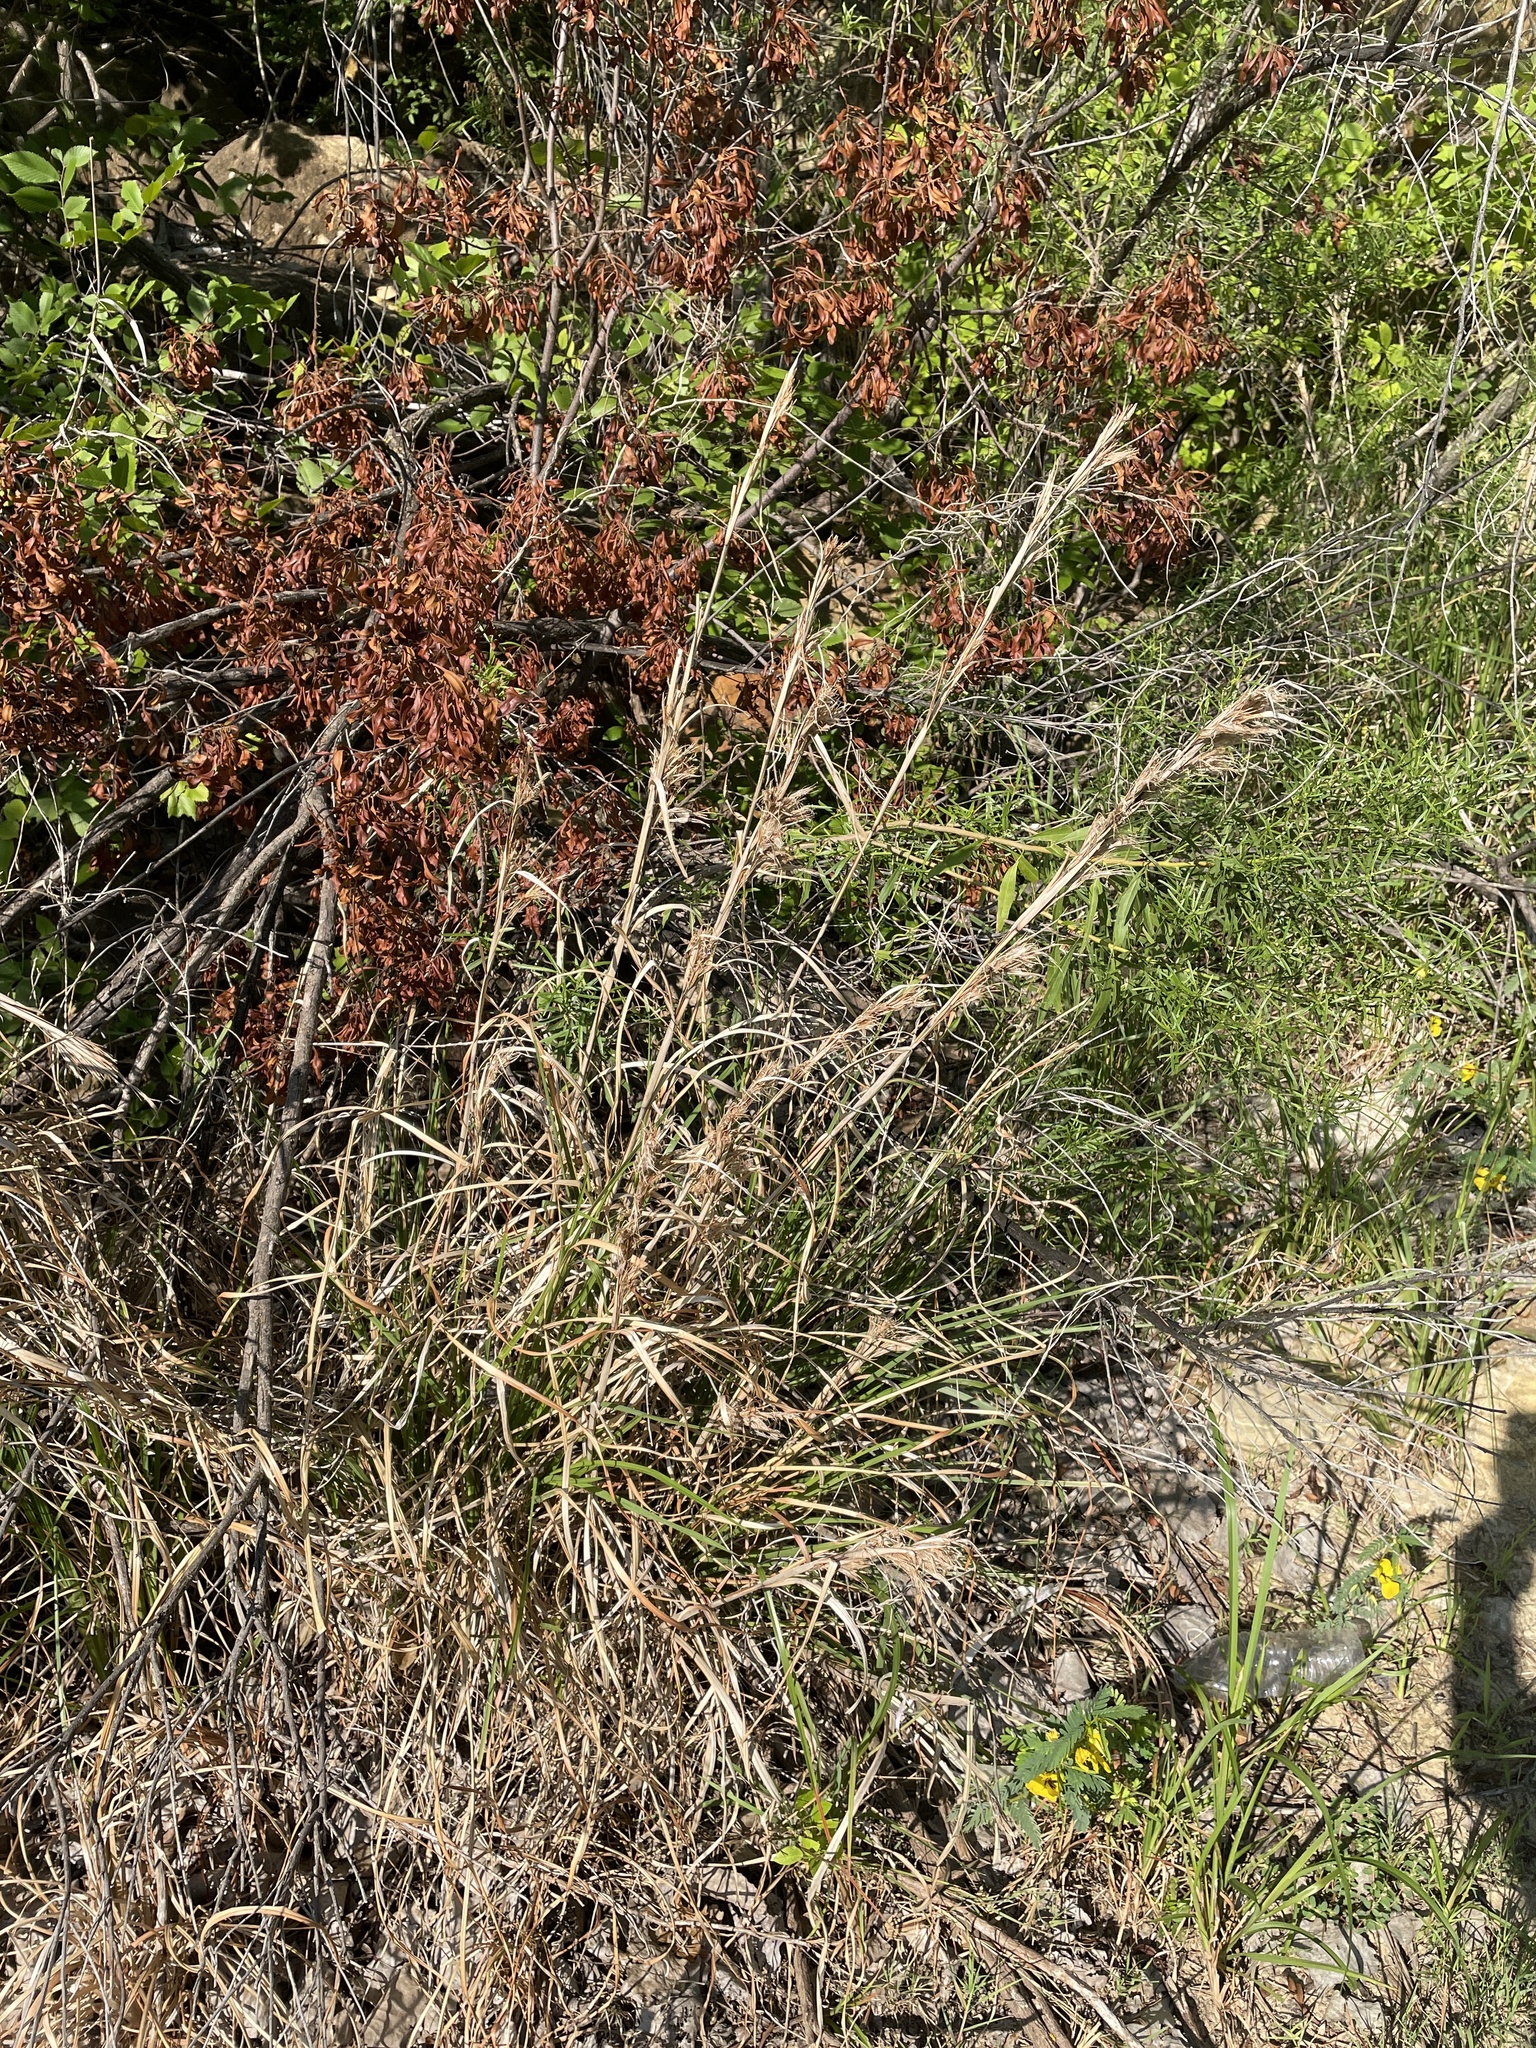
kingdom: Plantae
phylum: Tracheophyta
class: Liliopsida
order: Poales
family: Poaceae
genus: Andropogon
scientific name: Andropogon tenuispatheus
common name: Bushy bluestem
